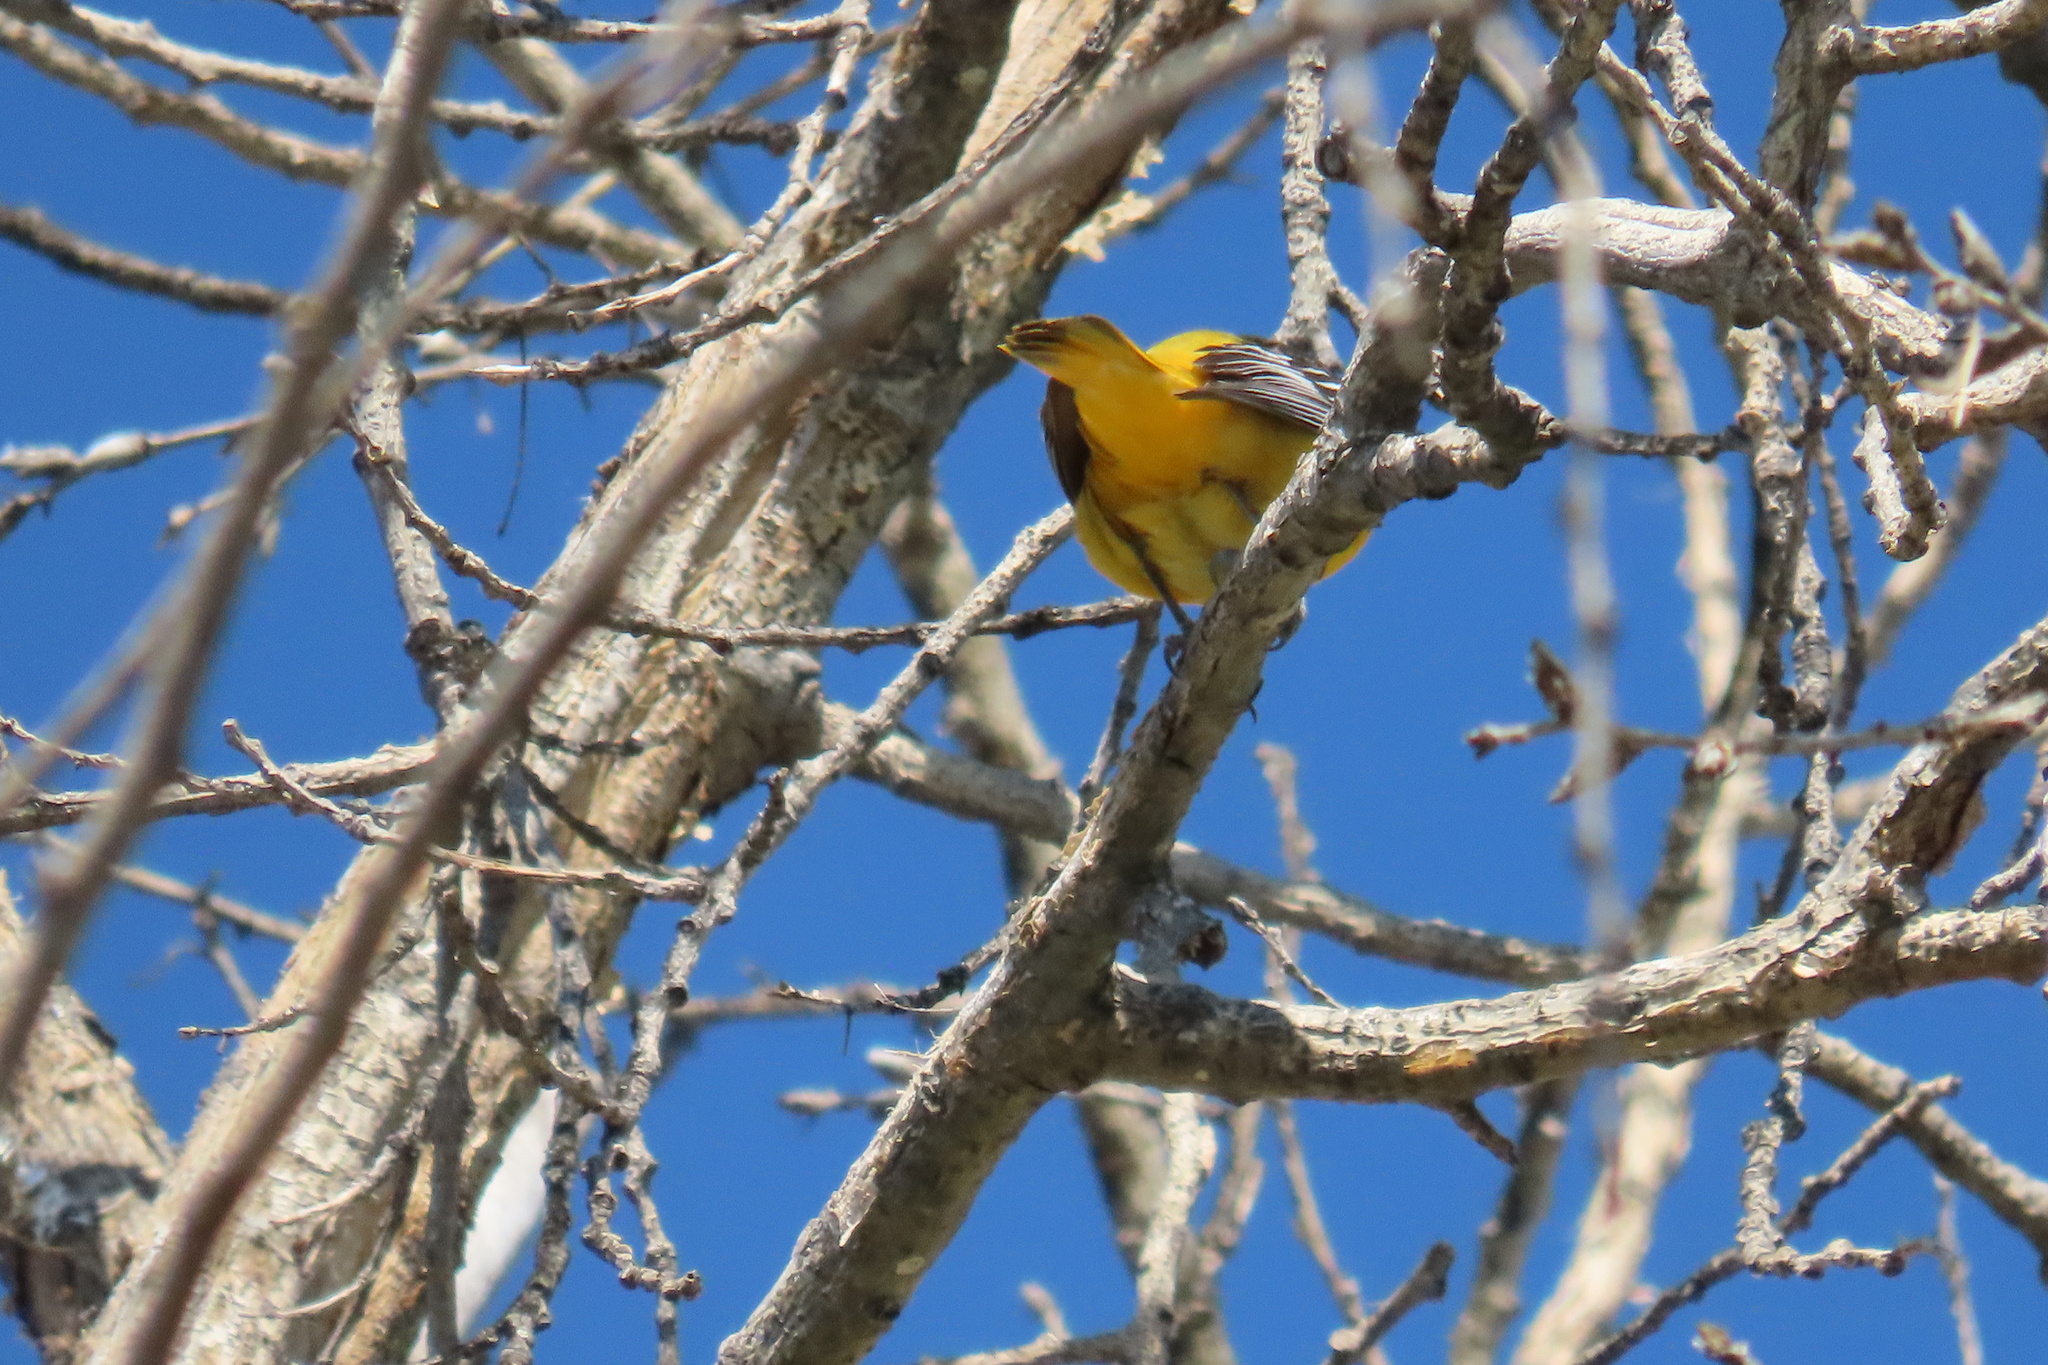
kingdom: Animalia
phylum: Chordata
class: Aves
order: Passeriformes
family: Icteridae
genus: Icterus
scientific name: Icterus bullockii
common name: Bullock's oriole
